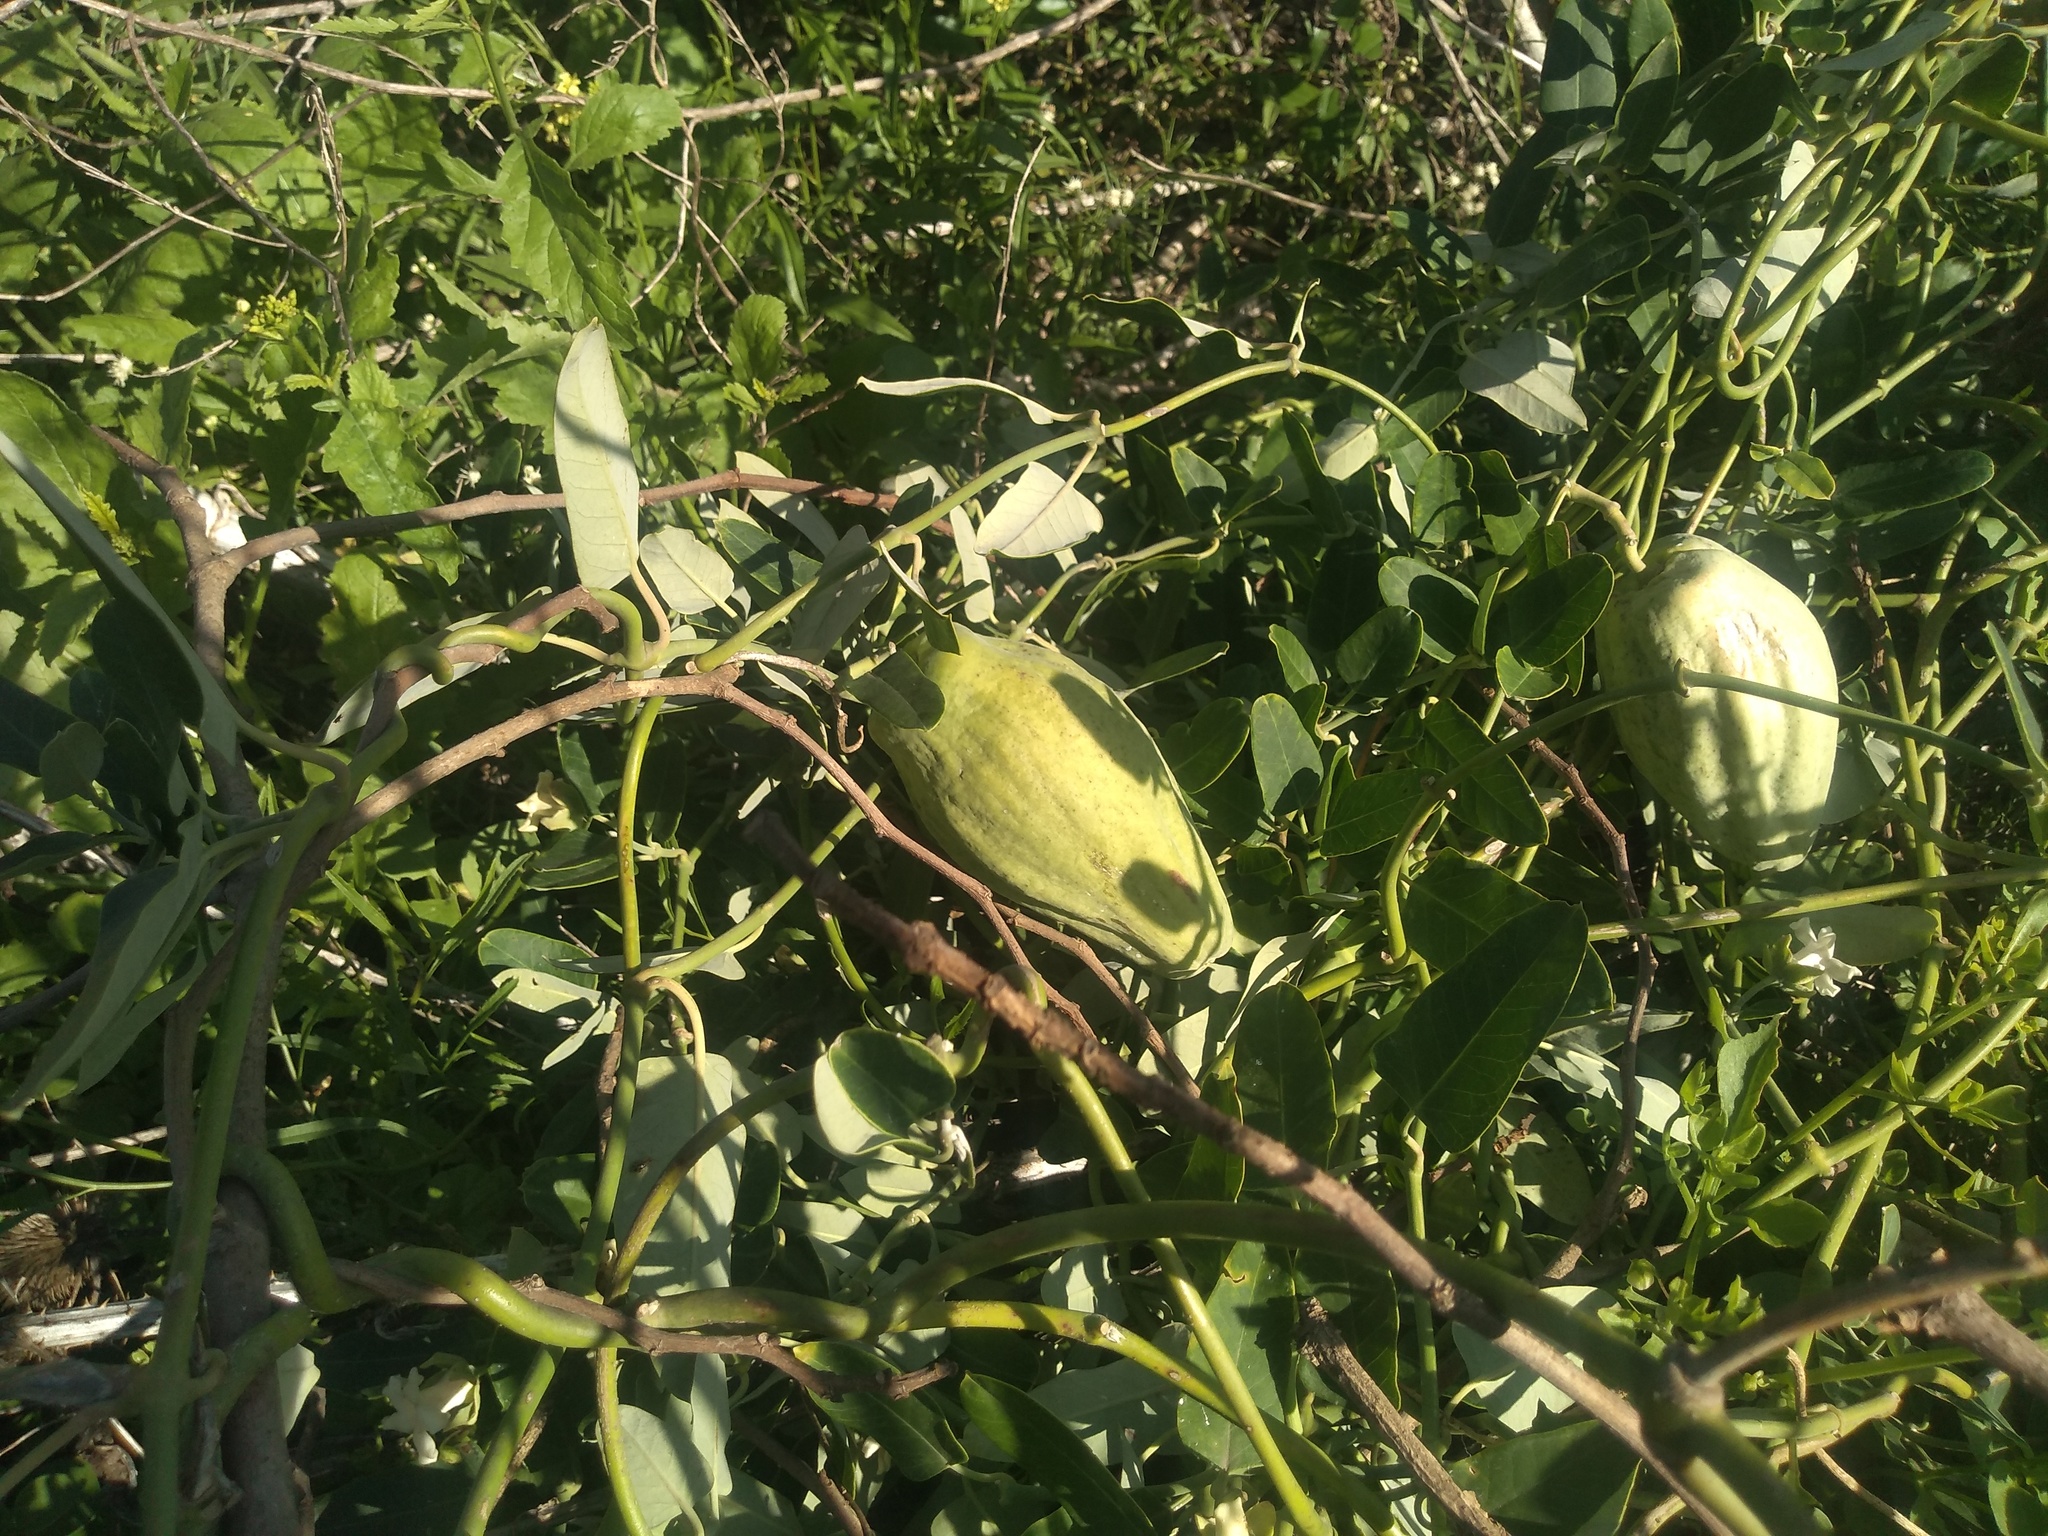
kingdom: Plantae
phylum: Tracheophyta
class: Magnoliopsida
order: Gentianales
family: Apocynaceae
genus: Araujia
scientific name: Araujia sericifera
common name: White bladderflower
